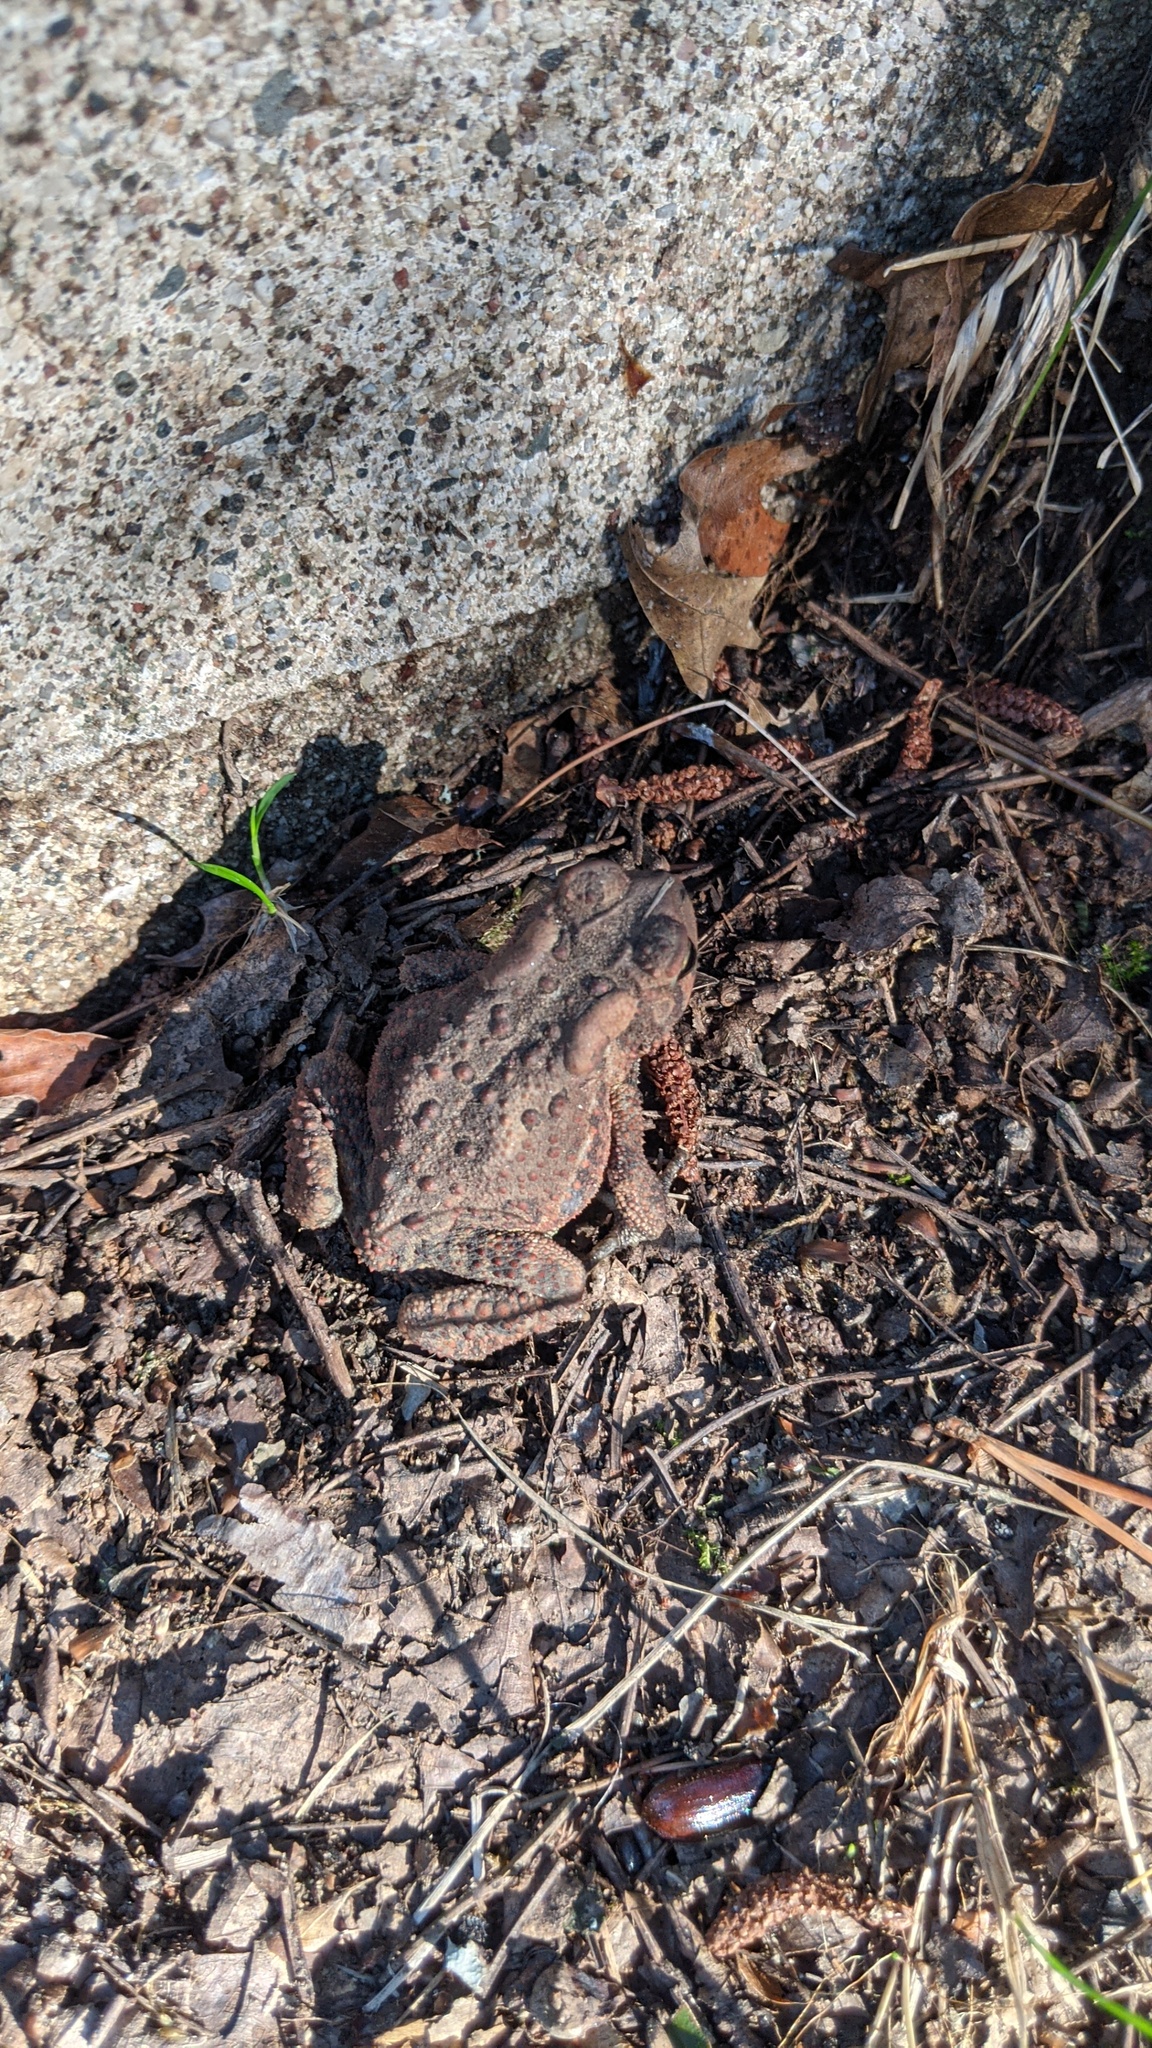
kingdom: Animalia
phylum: Chordata
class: Amphibia
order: Anura
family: Bufonidae
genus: Anaxyrus
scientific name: Anaxyrus americanus
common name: American toad
